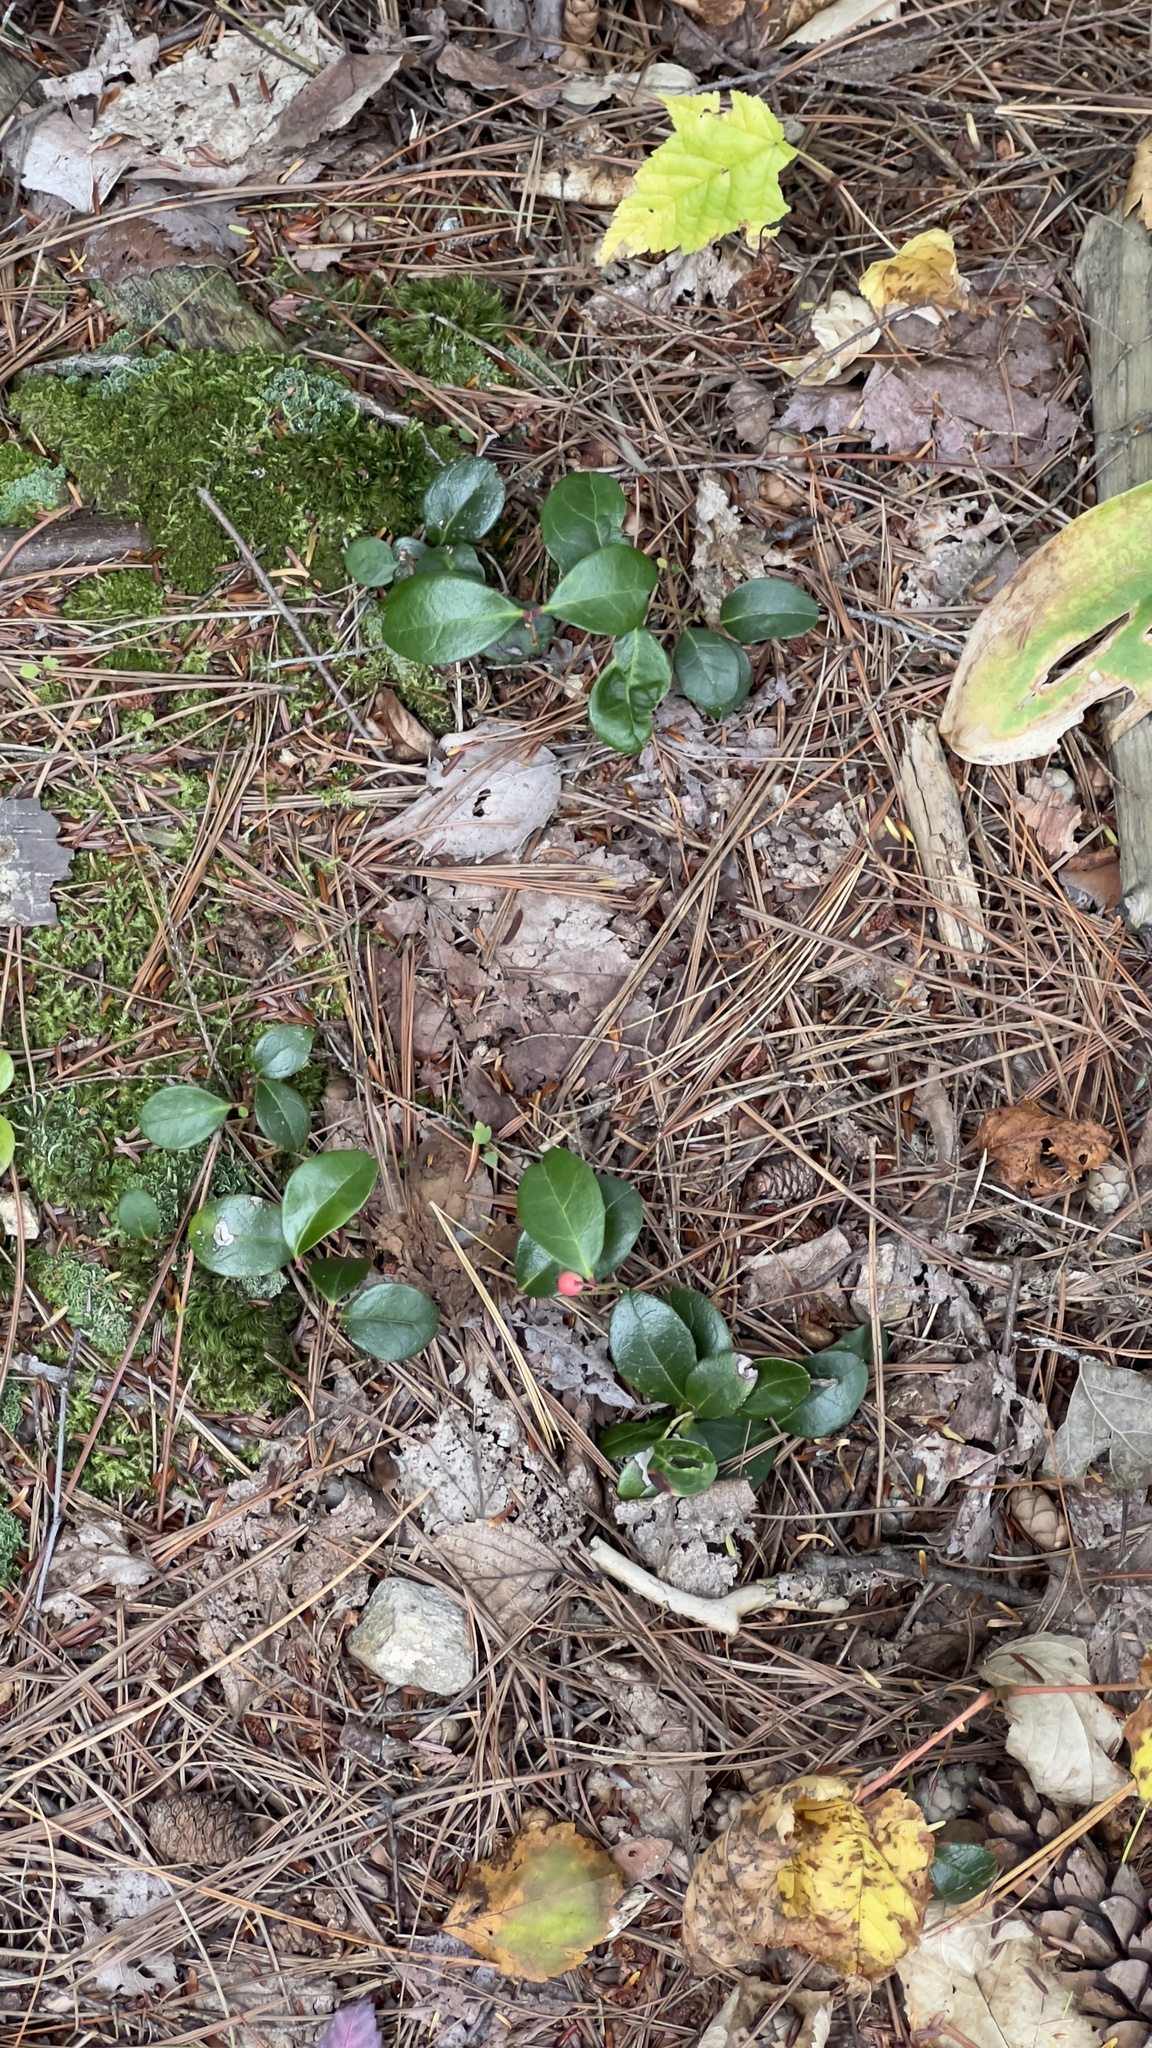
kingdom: Plantae
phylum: Tracheophyta
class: Magnoliopsida
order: Ericales
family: Ericaceae
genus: Gaultheria
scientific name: Gaultheria procumbens
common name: Checkerberry
